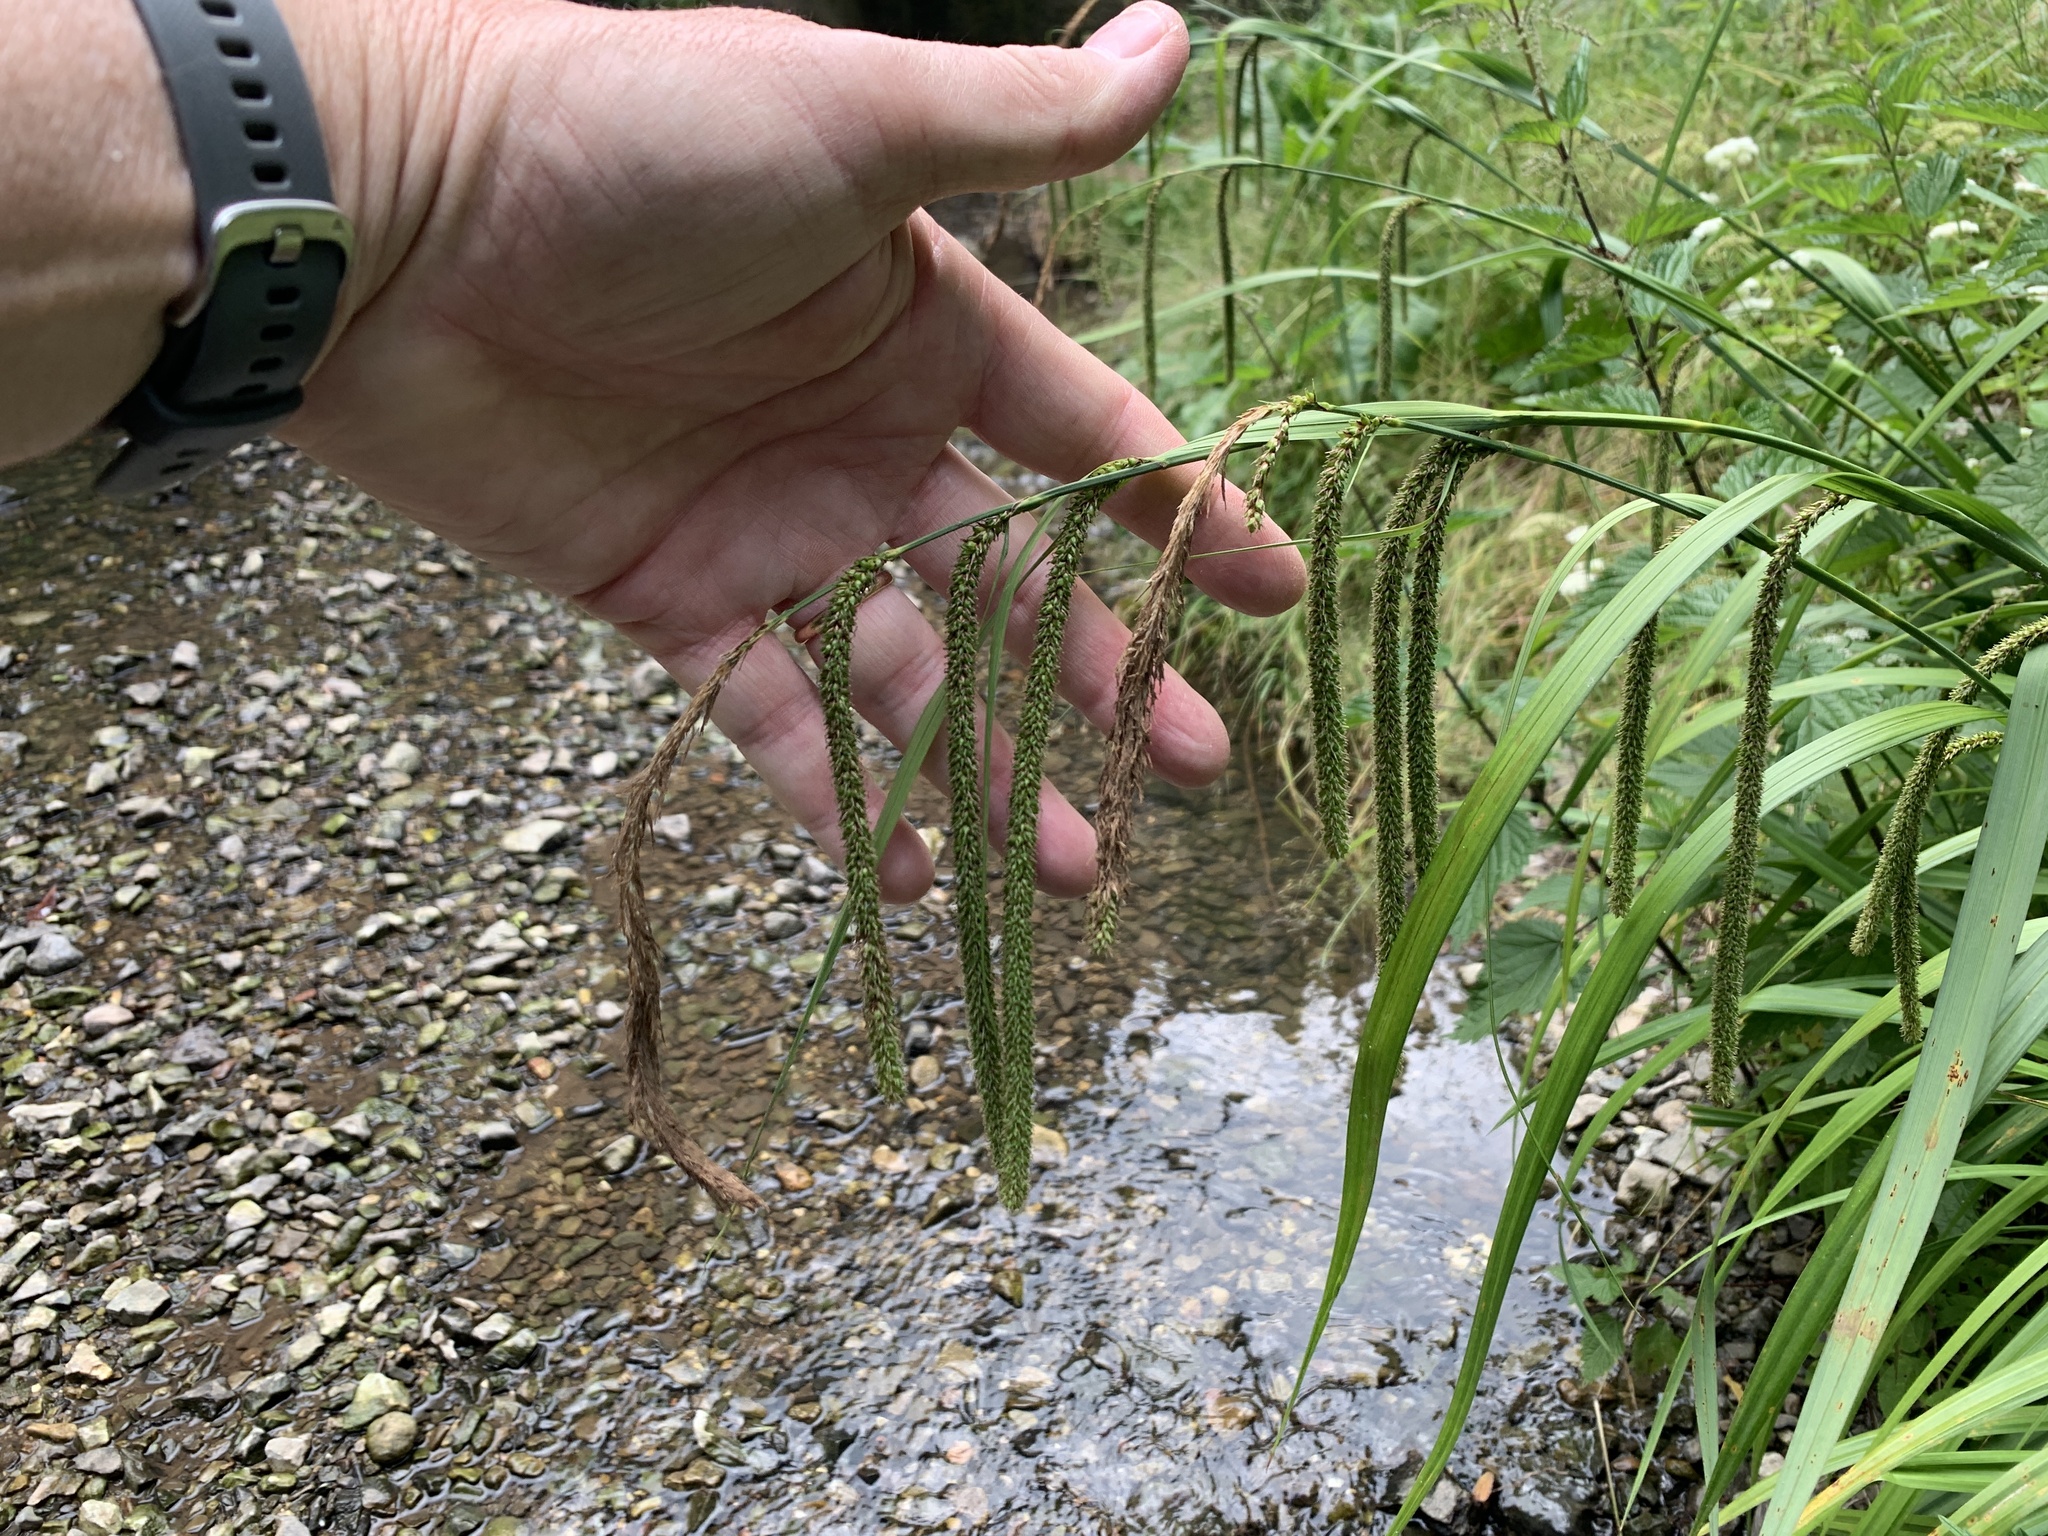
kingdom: Plantae
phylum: Tracheophyta
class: Liliopsida
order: Poales
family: Cyperaceae
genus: Carex
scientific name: Carex pendula
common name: Pendulous sedge
